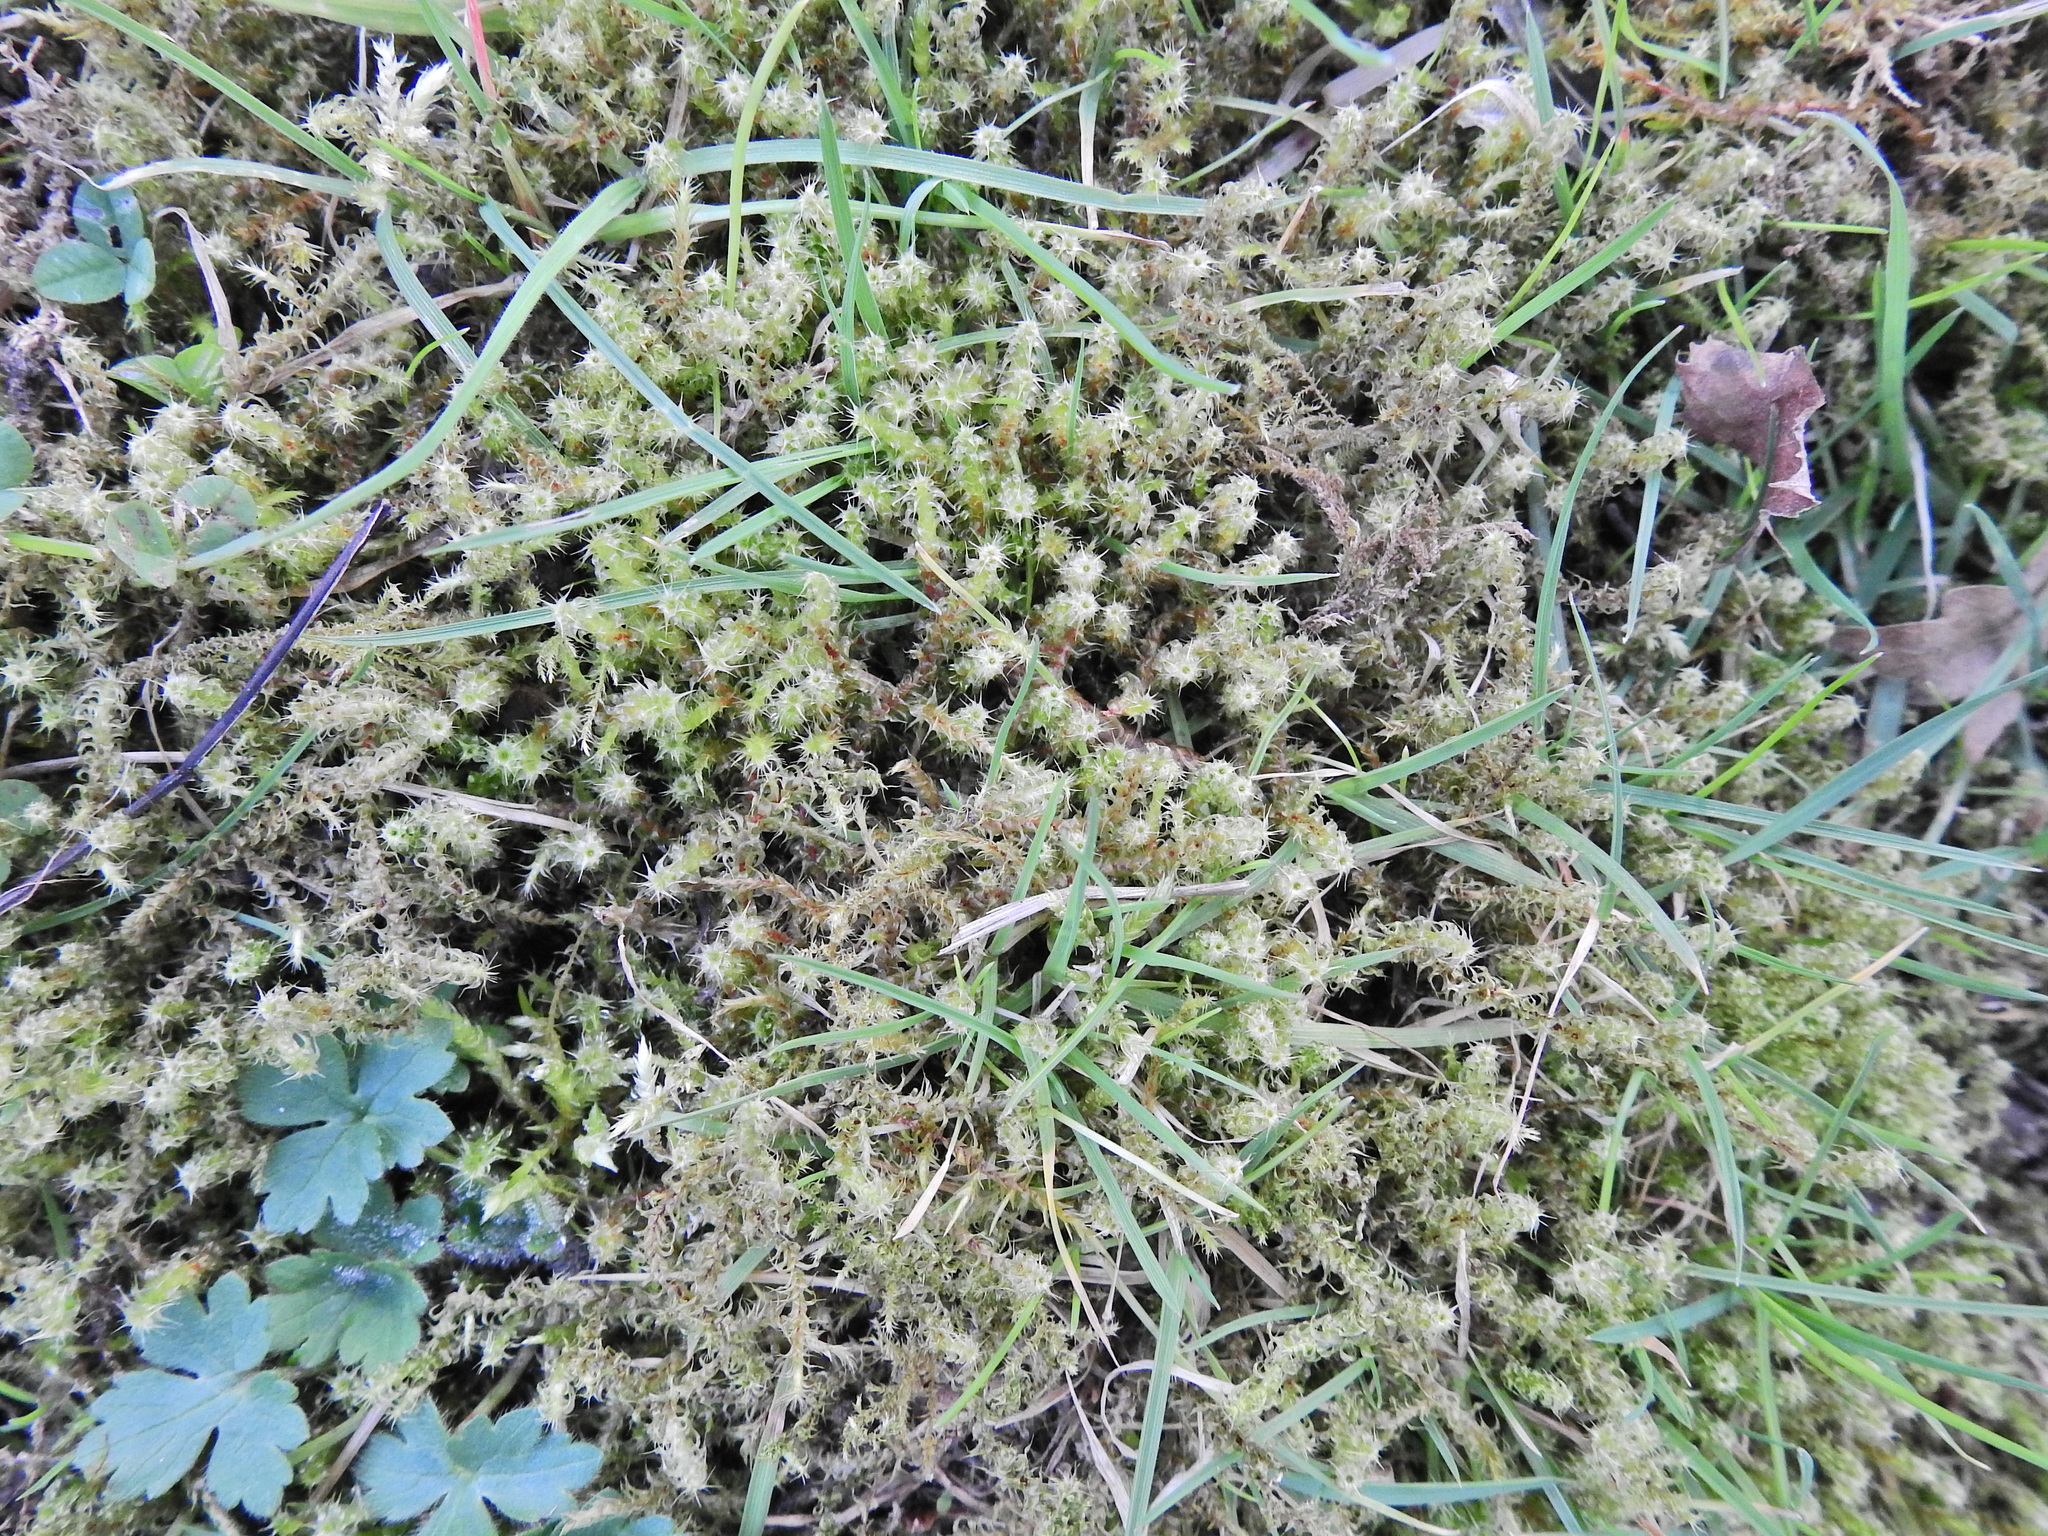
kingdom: Plantae
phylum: Bryophyta
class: Bryopsida
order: Hypnales
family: Hylocomiaceae
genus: Rhytidiadelphus
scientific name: Rhytidiadelphus squarrosus
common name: Springy turf-moss
